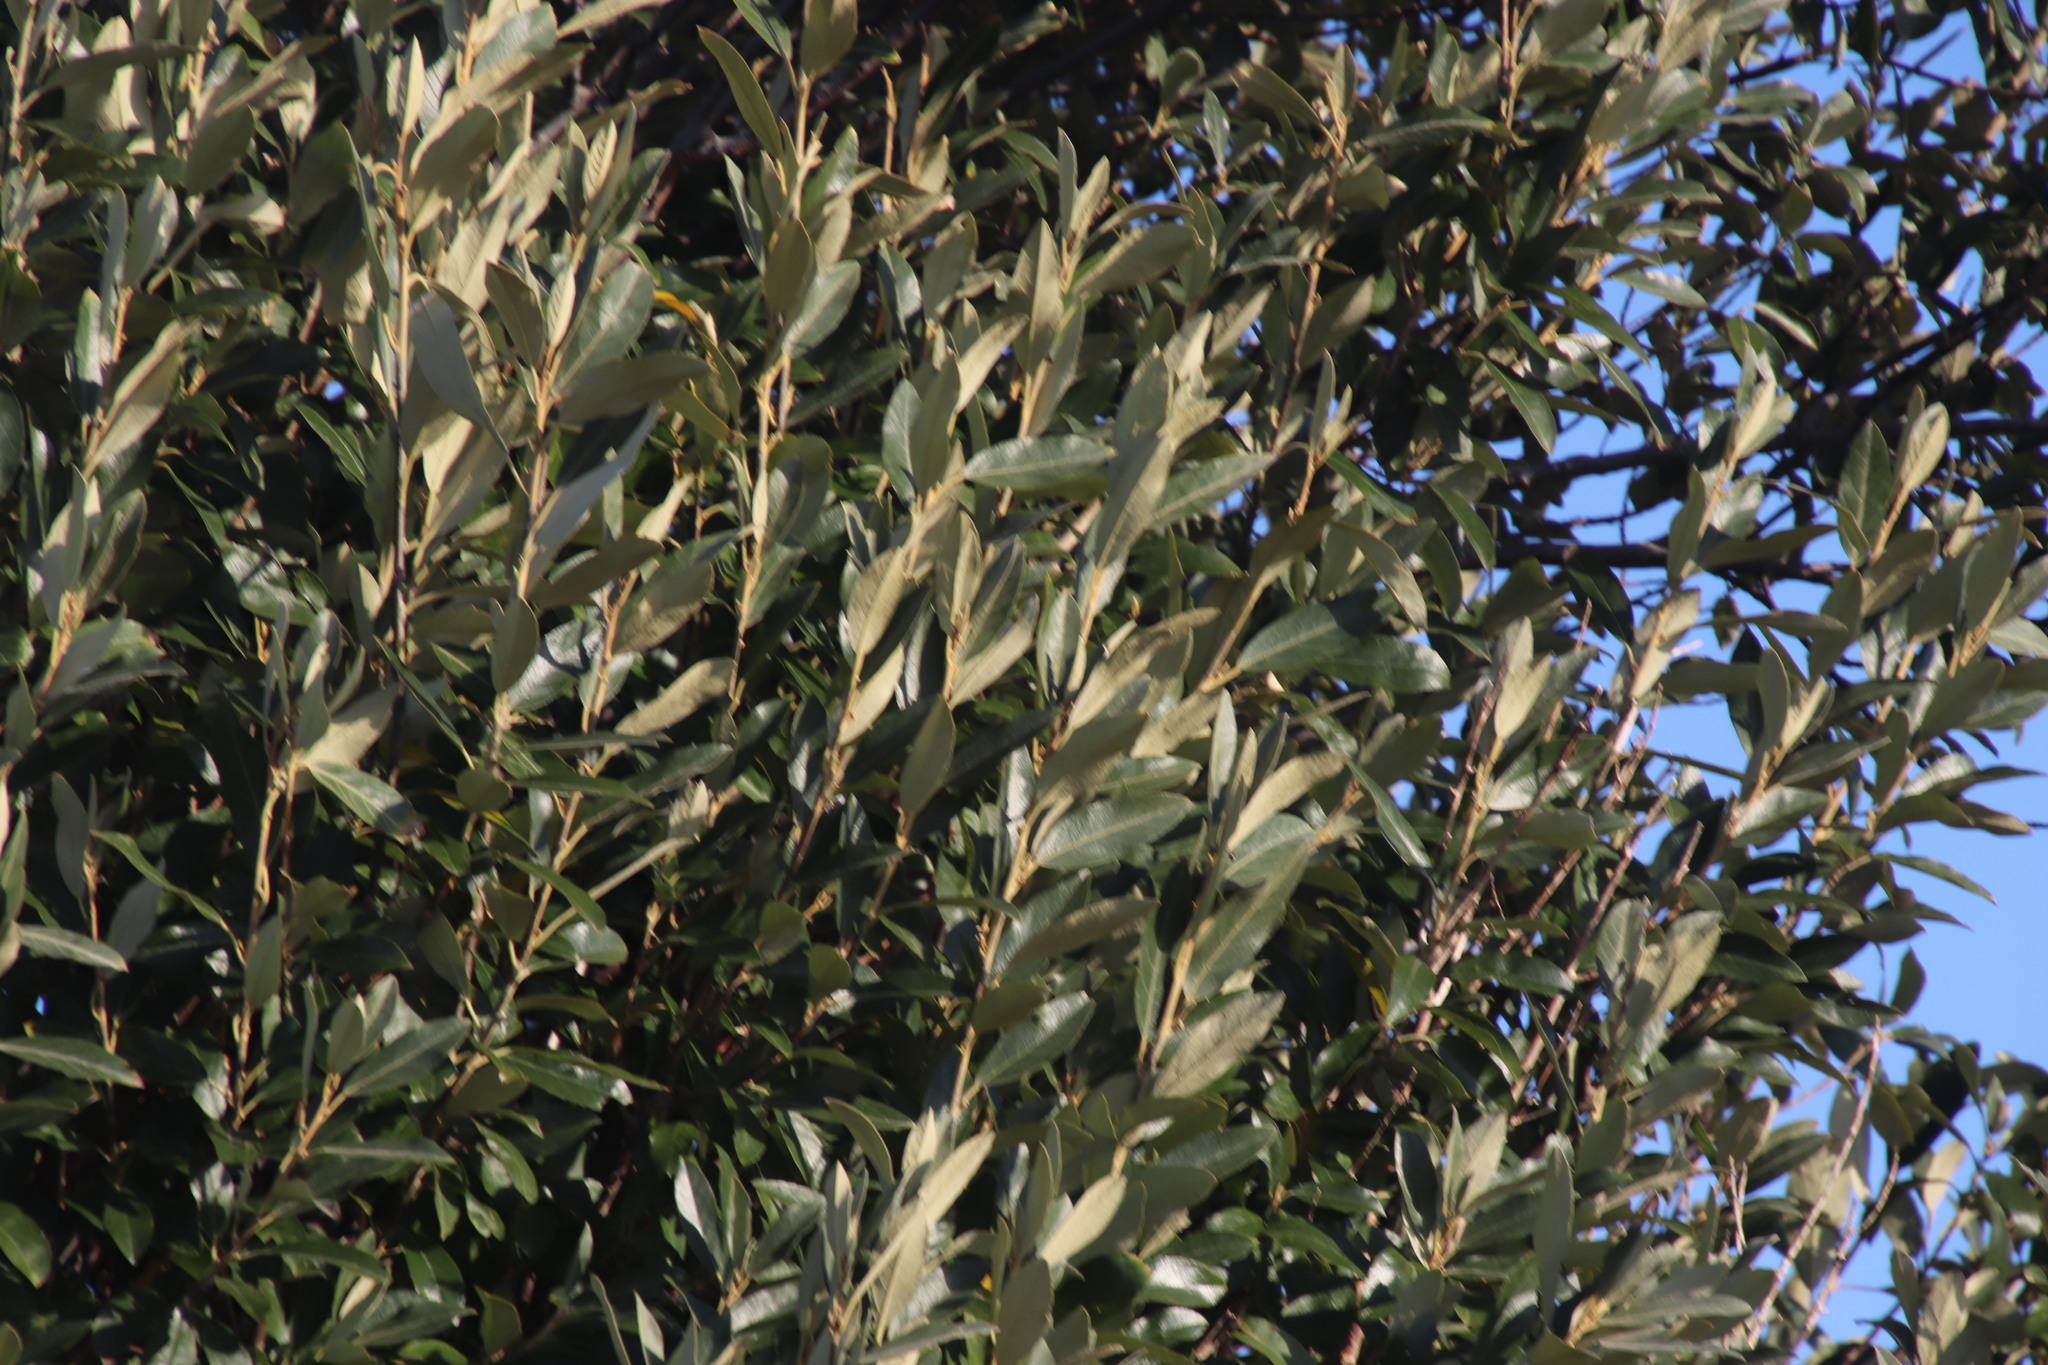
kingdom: Plantae
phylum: Tracheophyta
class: Magnoliopsida
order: Malpighiales
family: Achariaceae
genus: Kiggelaria
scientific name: Kiggelaria africana
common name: Wild peach
